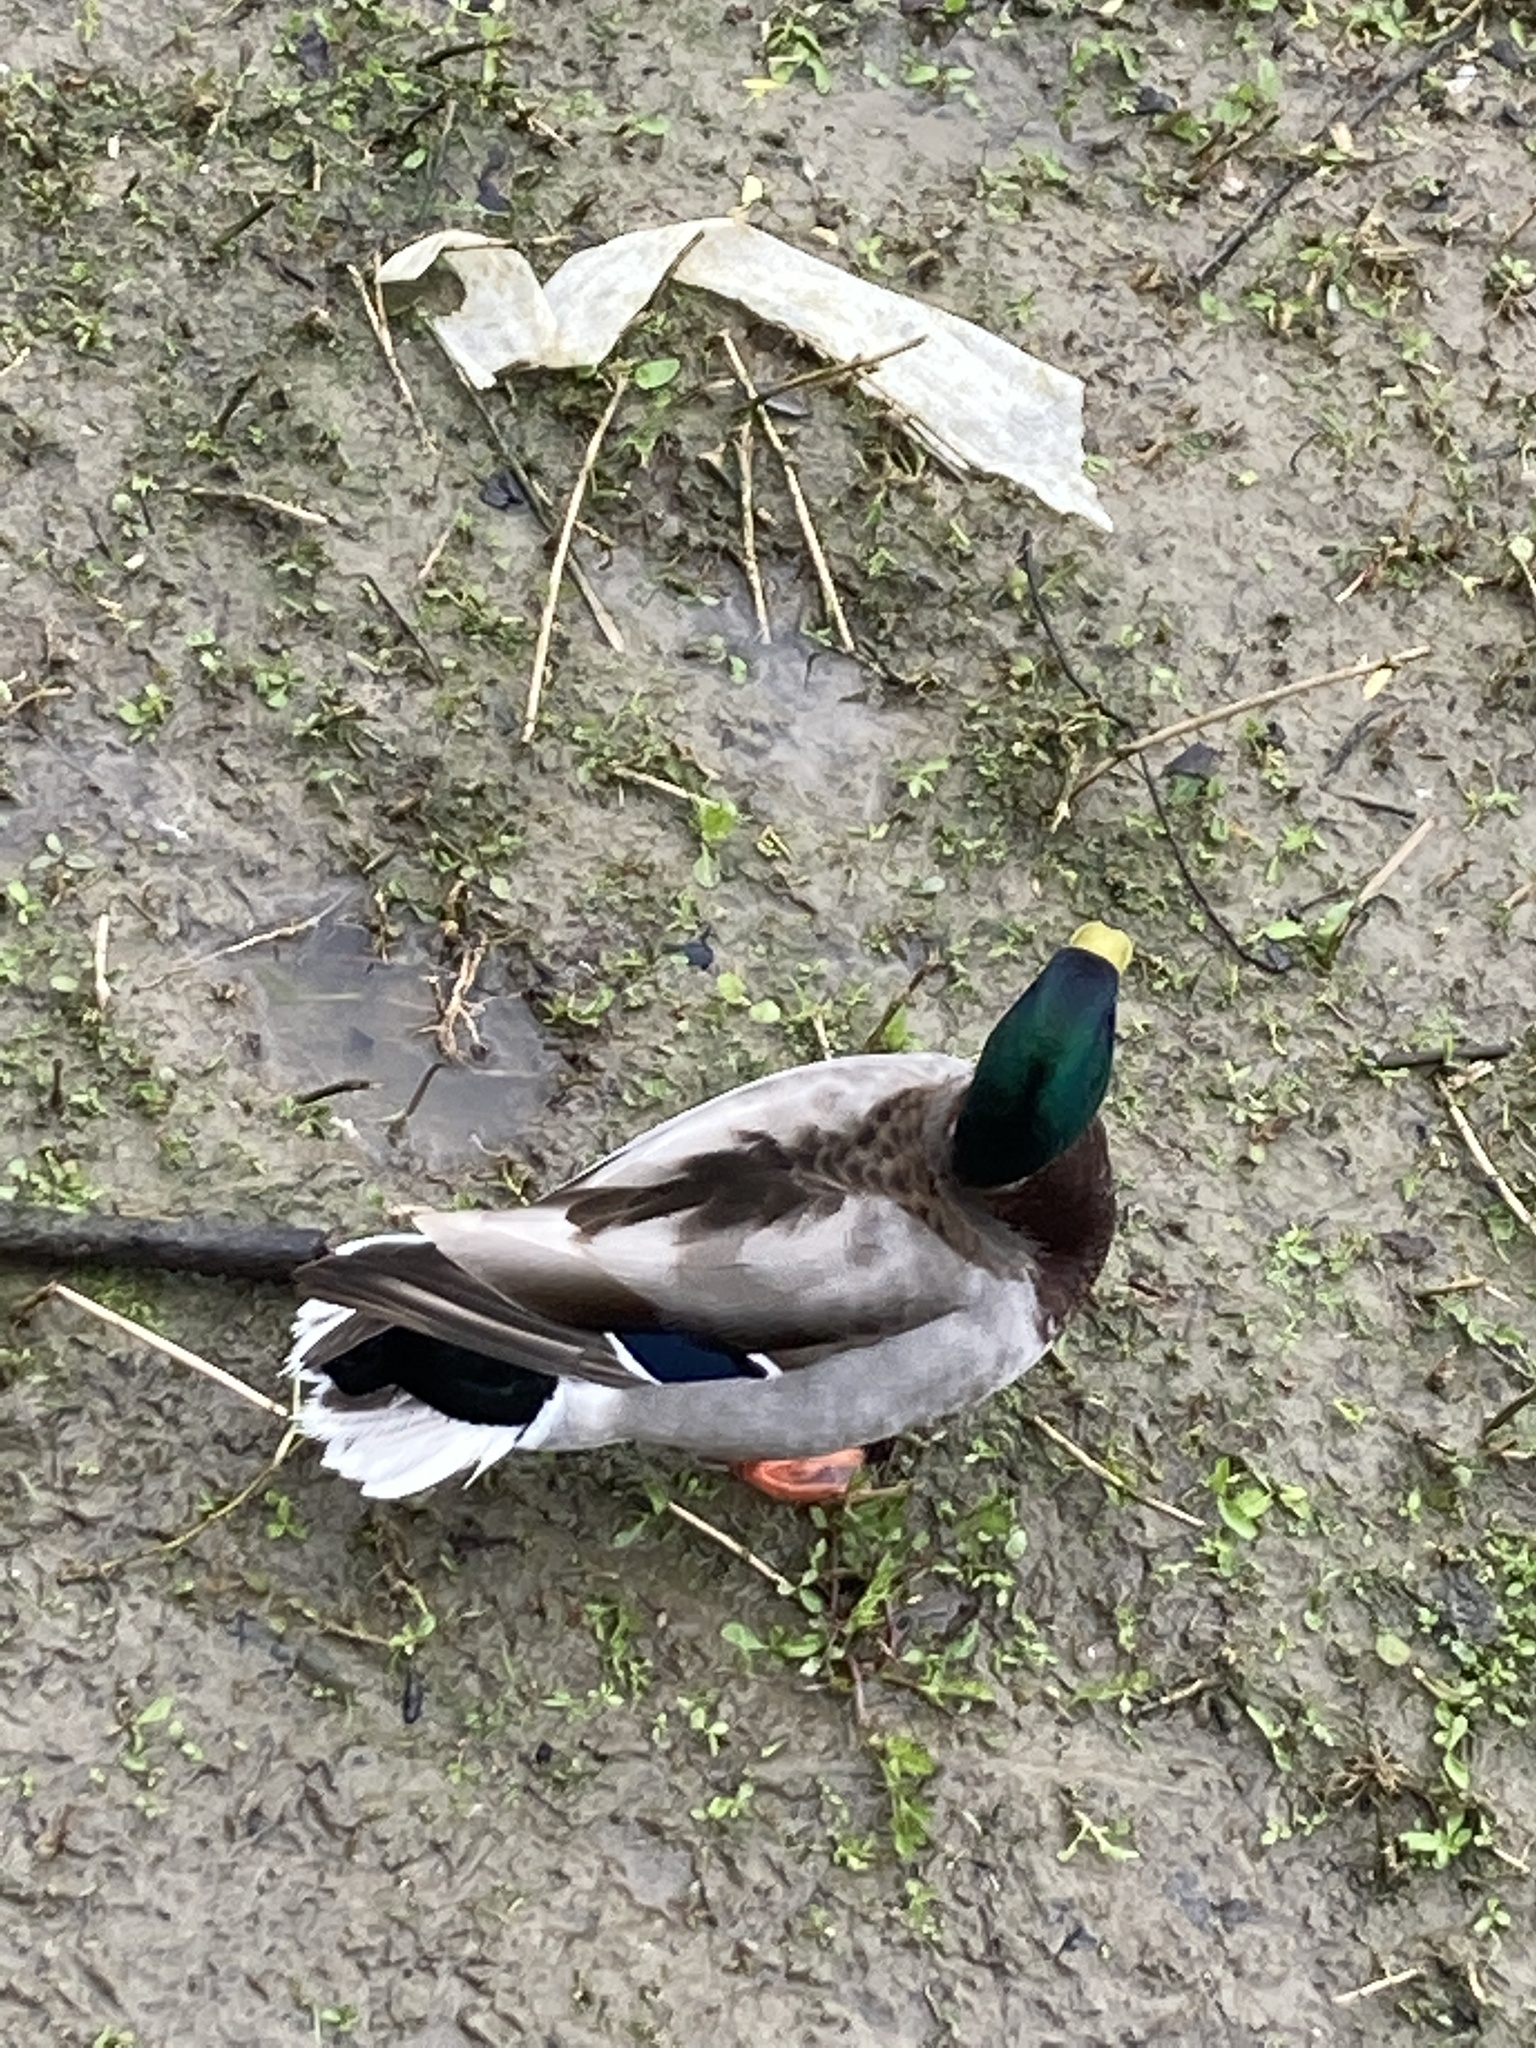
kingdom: Animalia
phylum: Chordata
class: Aves
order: Anseriformes
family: Anatidae
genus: Anas
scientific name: Anas platyrhynchos
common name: Mallard
